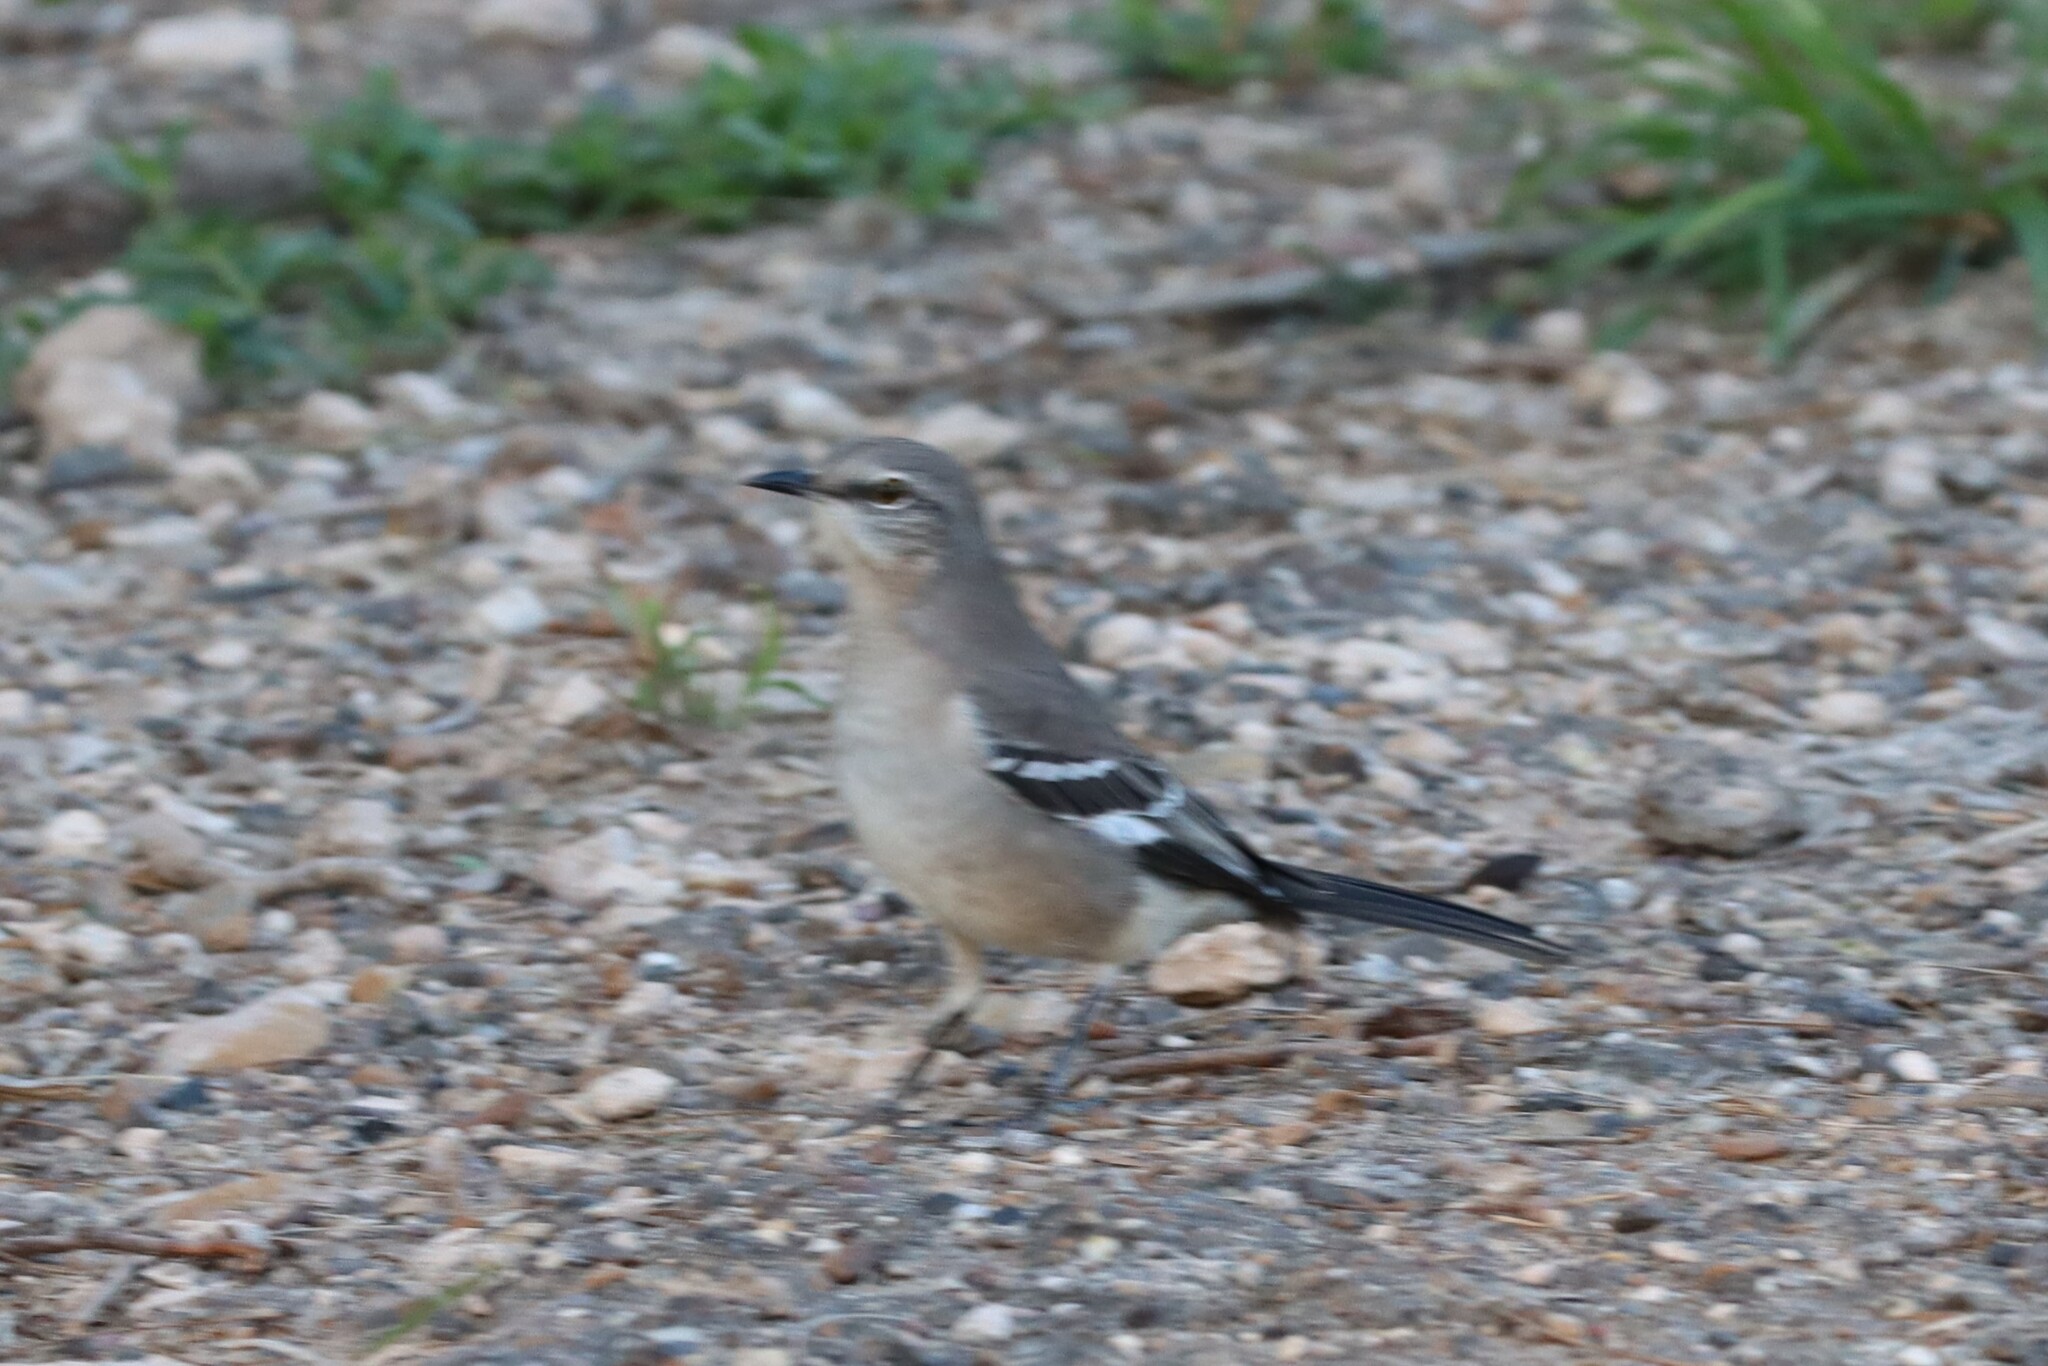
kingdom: Animalia
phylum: Chordata
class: Aves
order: Passeriformes
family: Mimidae
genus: Mimus
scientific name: Mimus polyglottos
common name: Northern mockingbird
